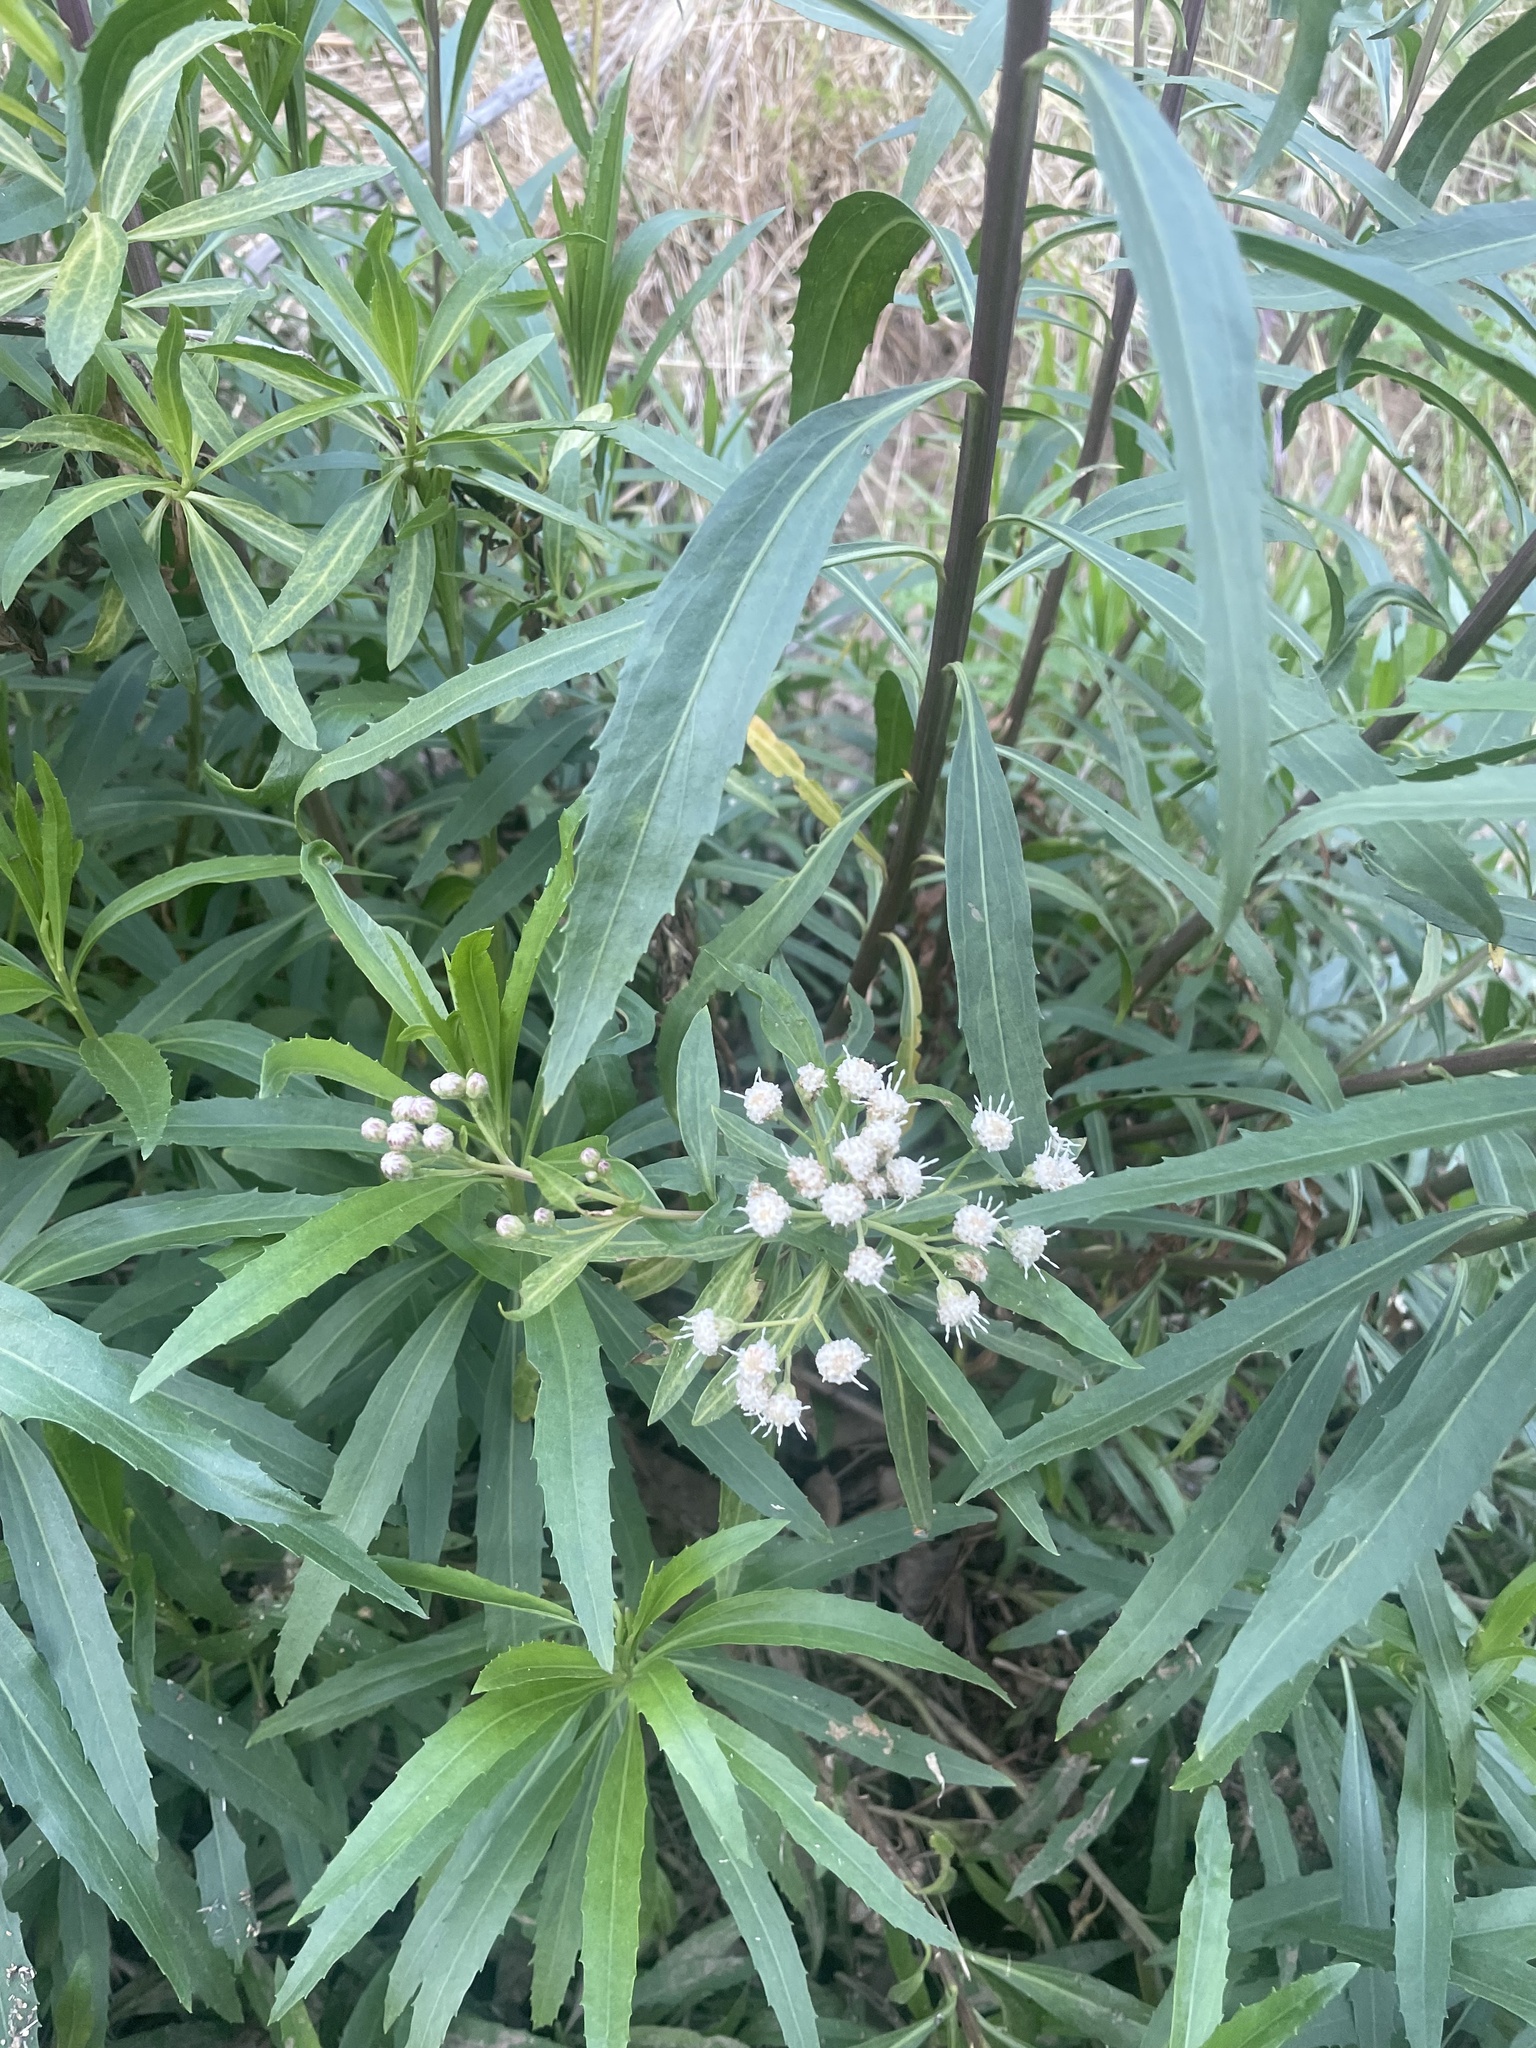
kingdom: Plantae
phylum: Tracheophyta
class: Magnoliopsida
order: Asterales
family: Asteraceae
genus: Baccharis
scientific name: Baccharis salicifolia
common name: Sticky baccharis
